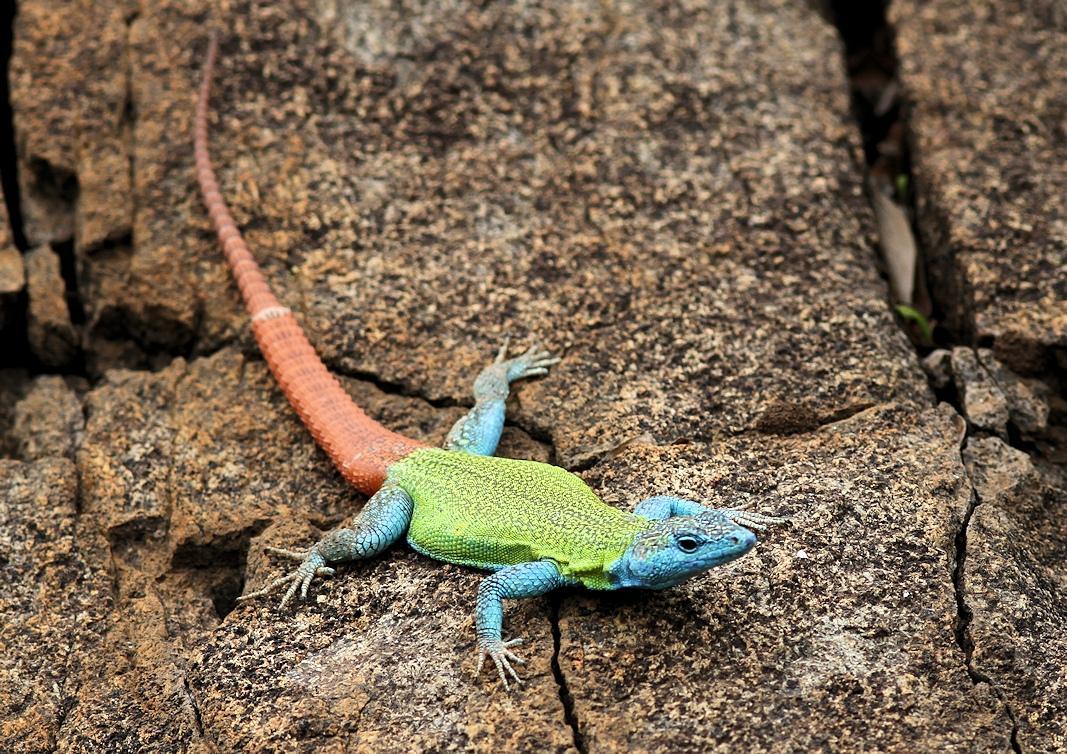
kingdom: Animalia
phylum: Chordata
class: Squamata
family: Cordylidae
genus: Platysaurus
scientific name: Platysaurus intermedius
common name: Common flat lizard
